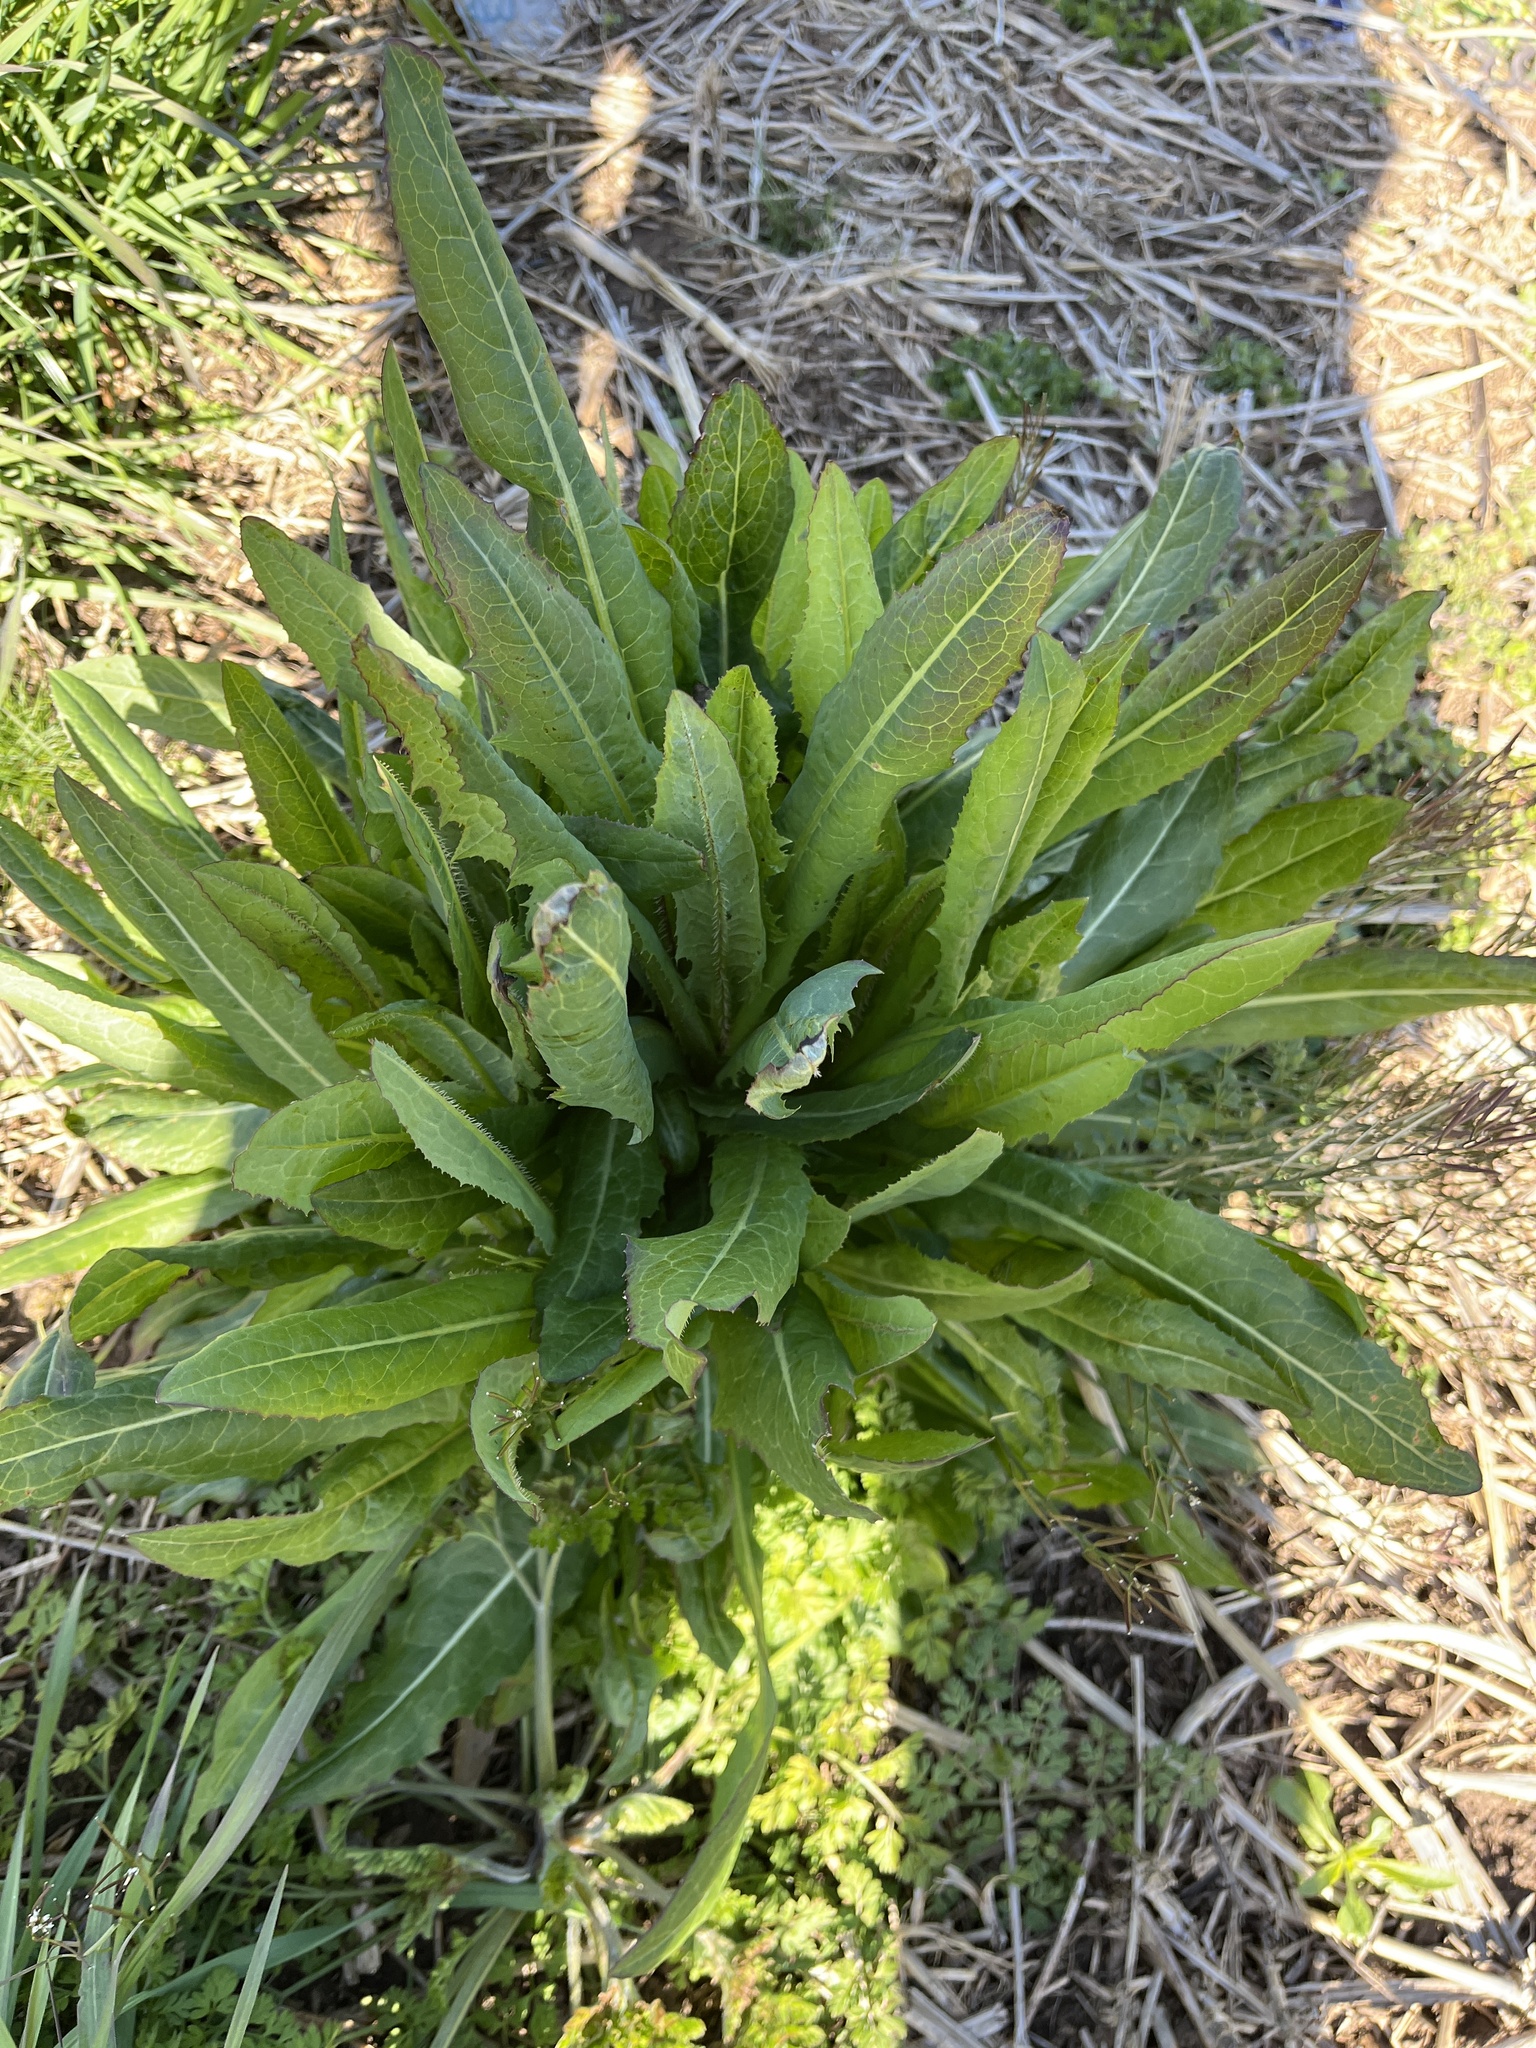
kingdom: Plantae
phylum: Tracheophyta
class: Magnoliopsida
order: Asterales
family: Asteraceae
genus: Lactuca
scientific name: Lactuca serriola
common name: Prickly lettuce
